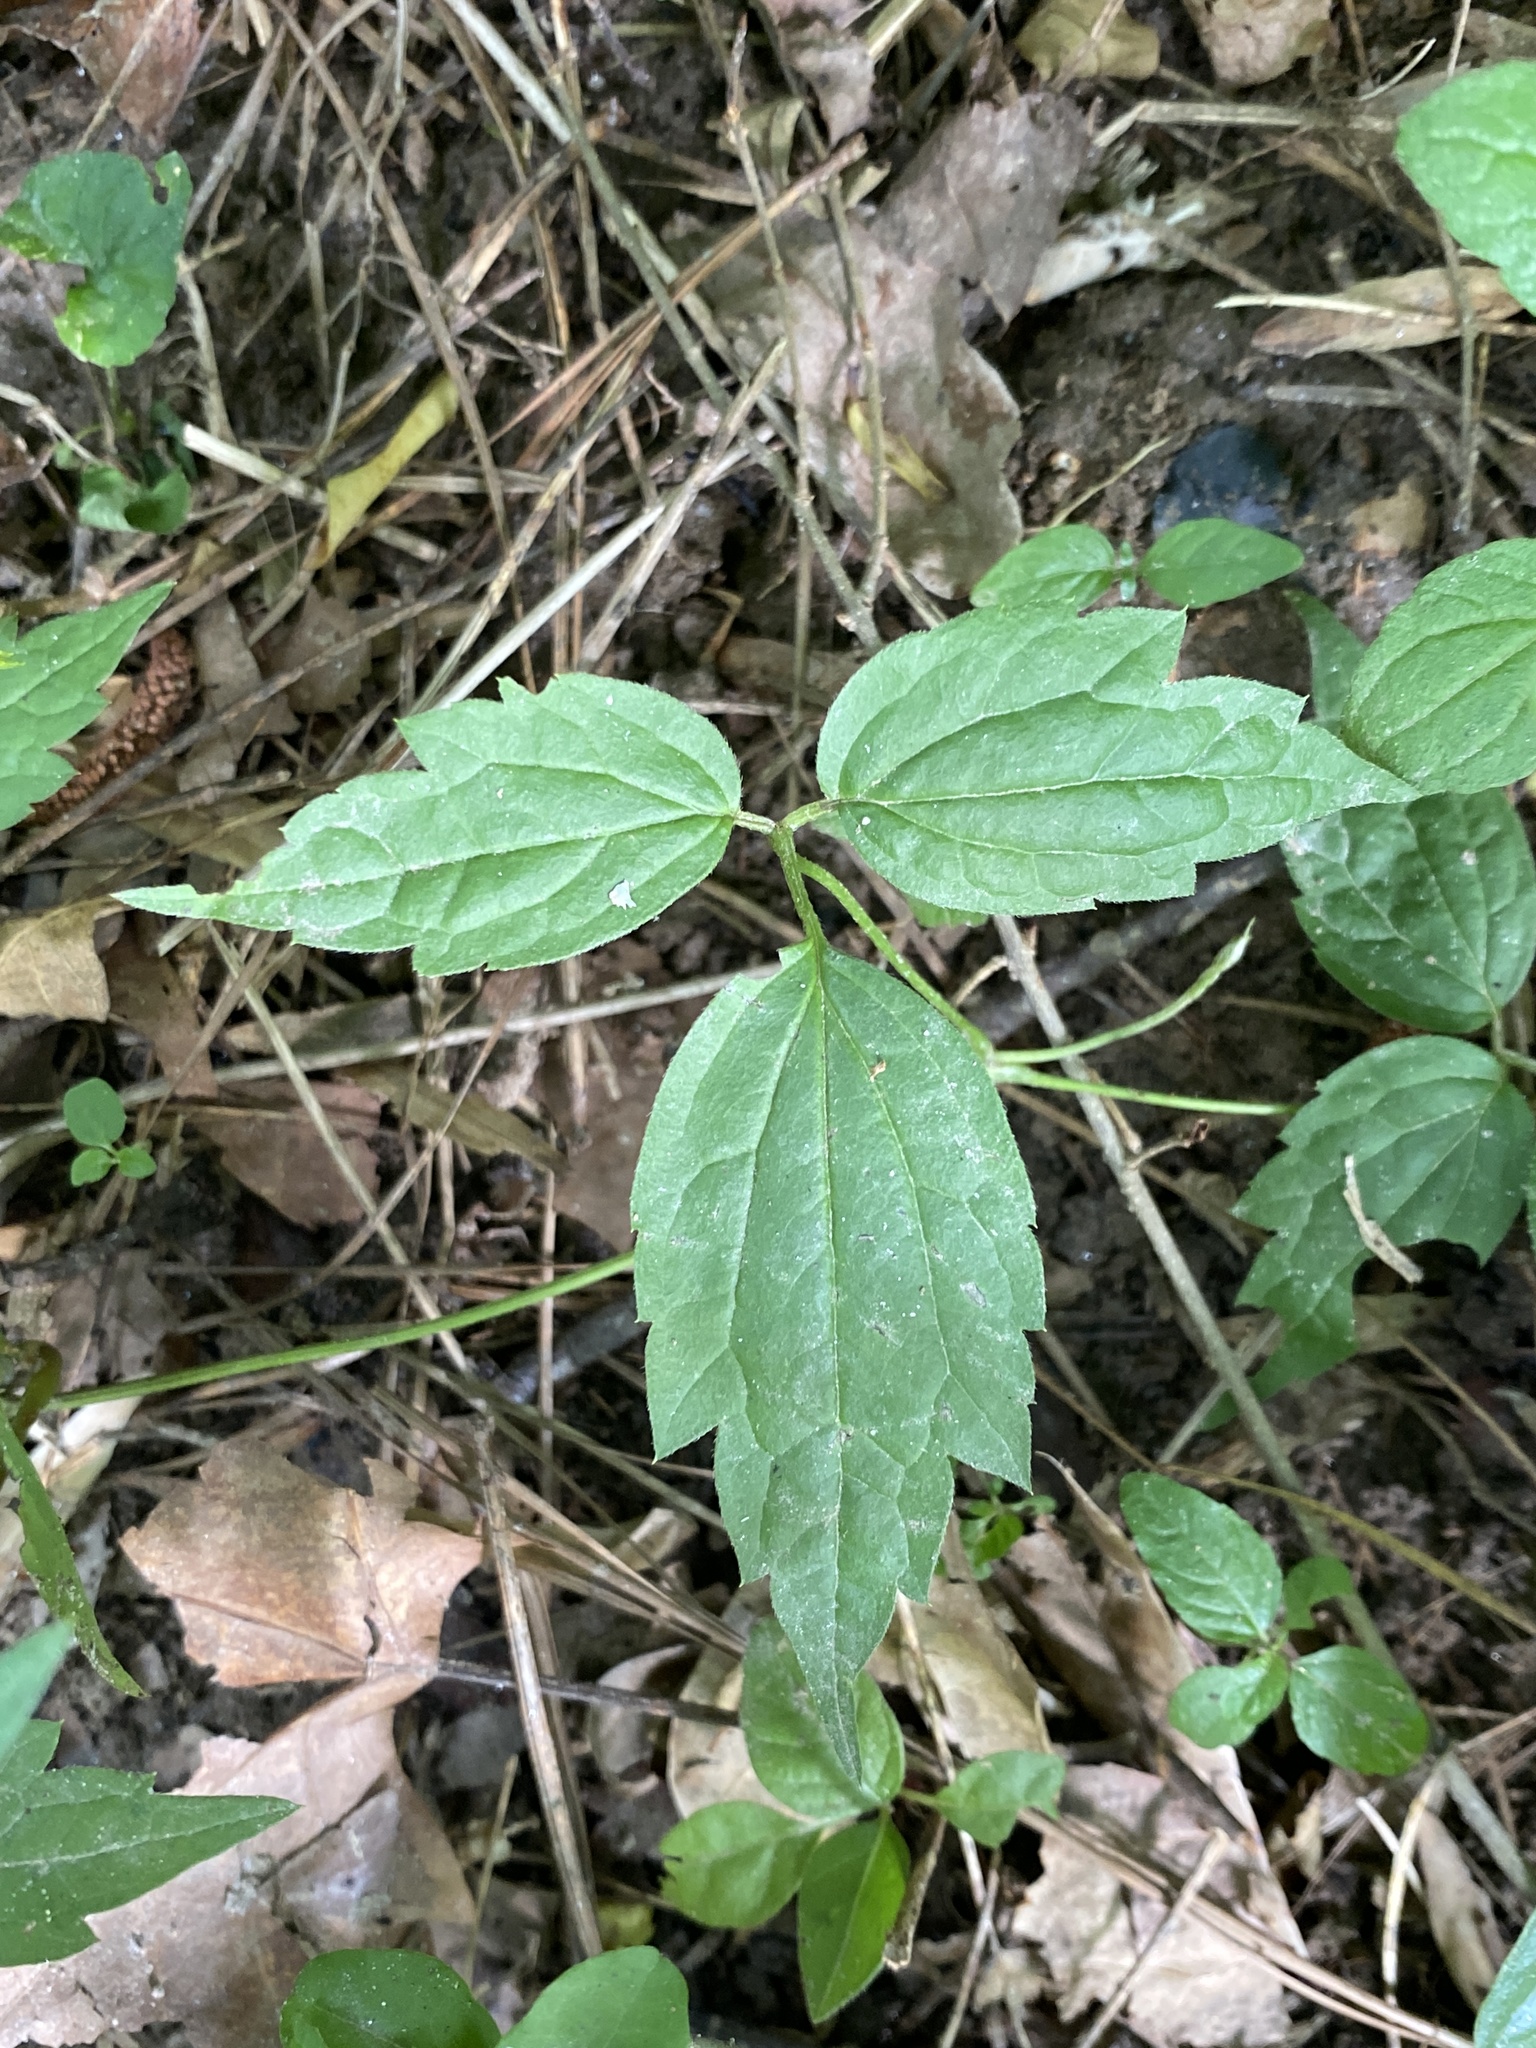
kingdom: Plantae
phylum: Tracheophyta
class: Magnoliopsida
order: Ranunculales
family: Ranunculaceae
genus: Clematis
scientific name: Clematis virginiana
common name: Virgin's-bower
